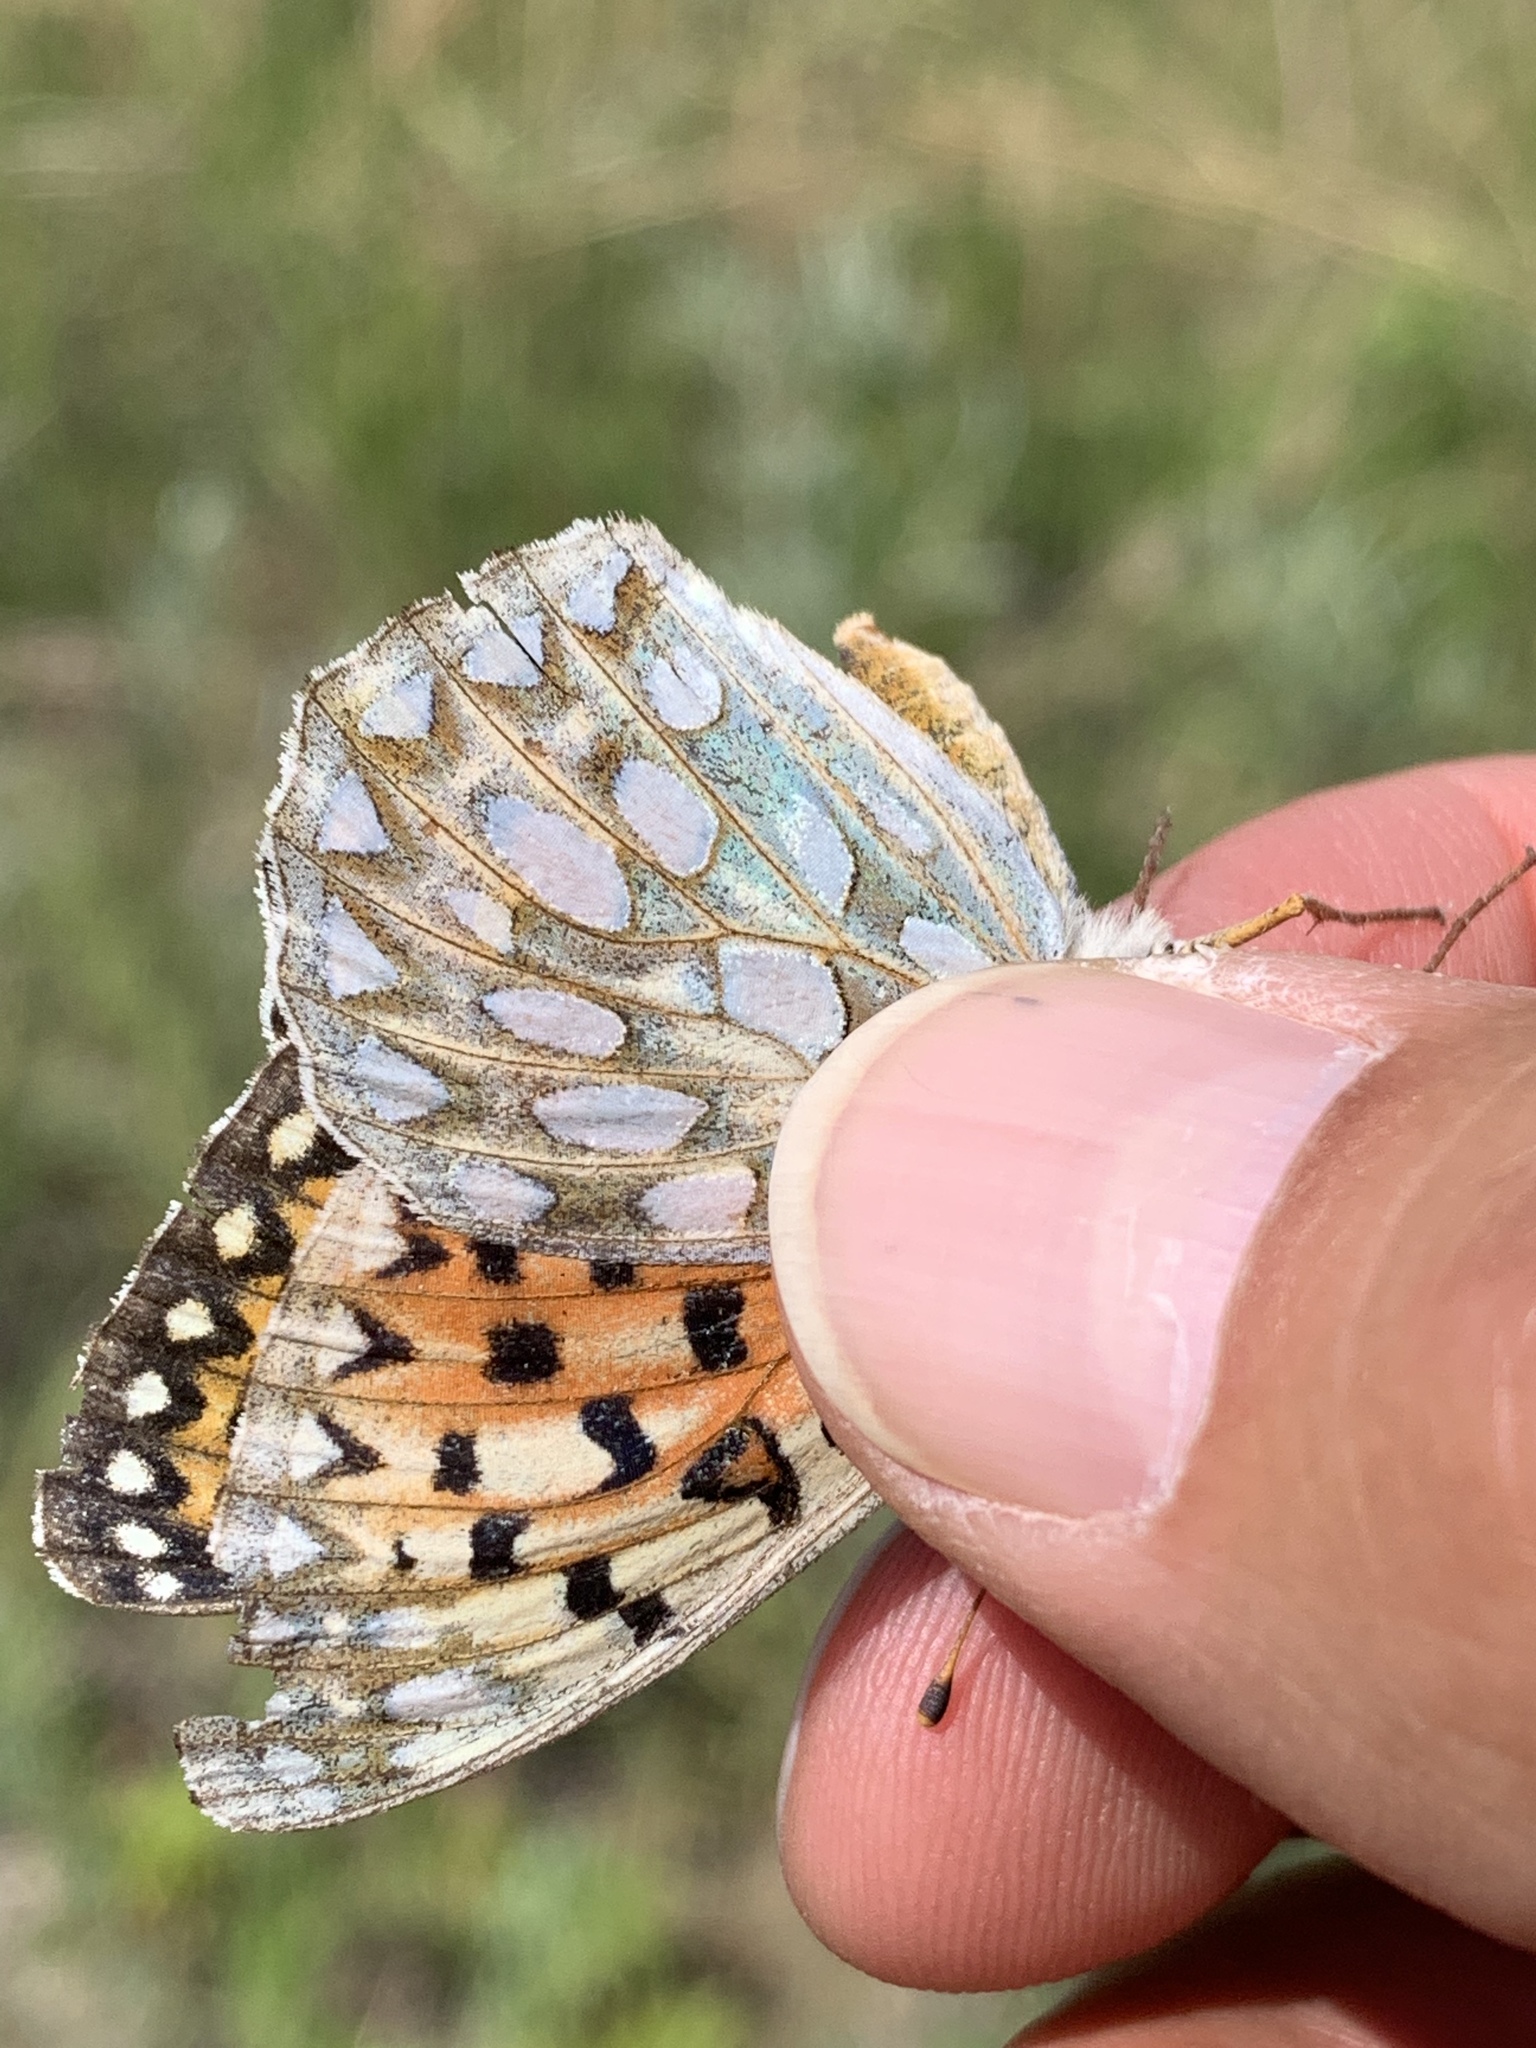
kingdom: Animalia
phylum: Arthropoda
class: Insecta
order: Lepidoptera
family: Nymphalidae
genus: Speyeria
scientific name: Speyeria callippe
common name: Callippe fritillary
